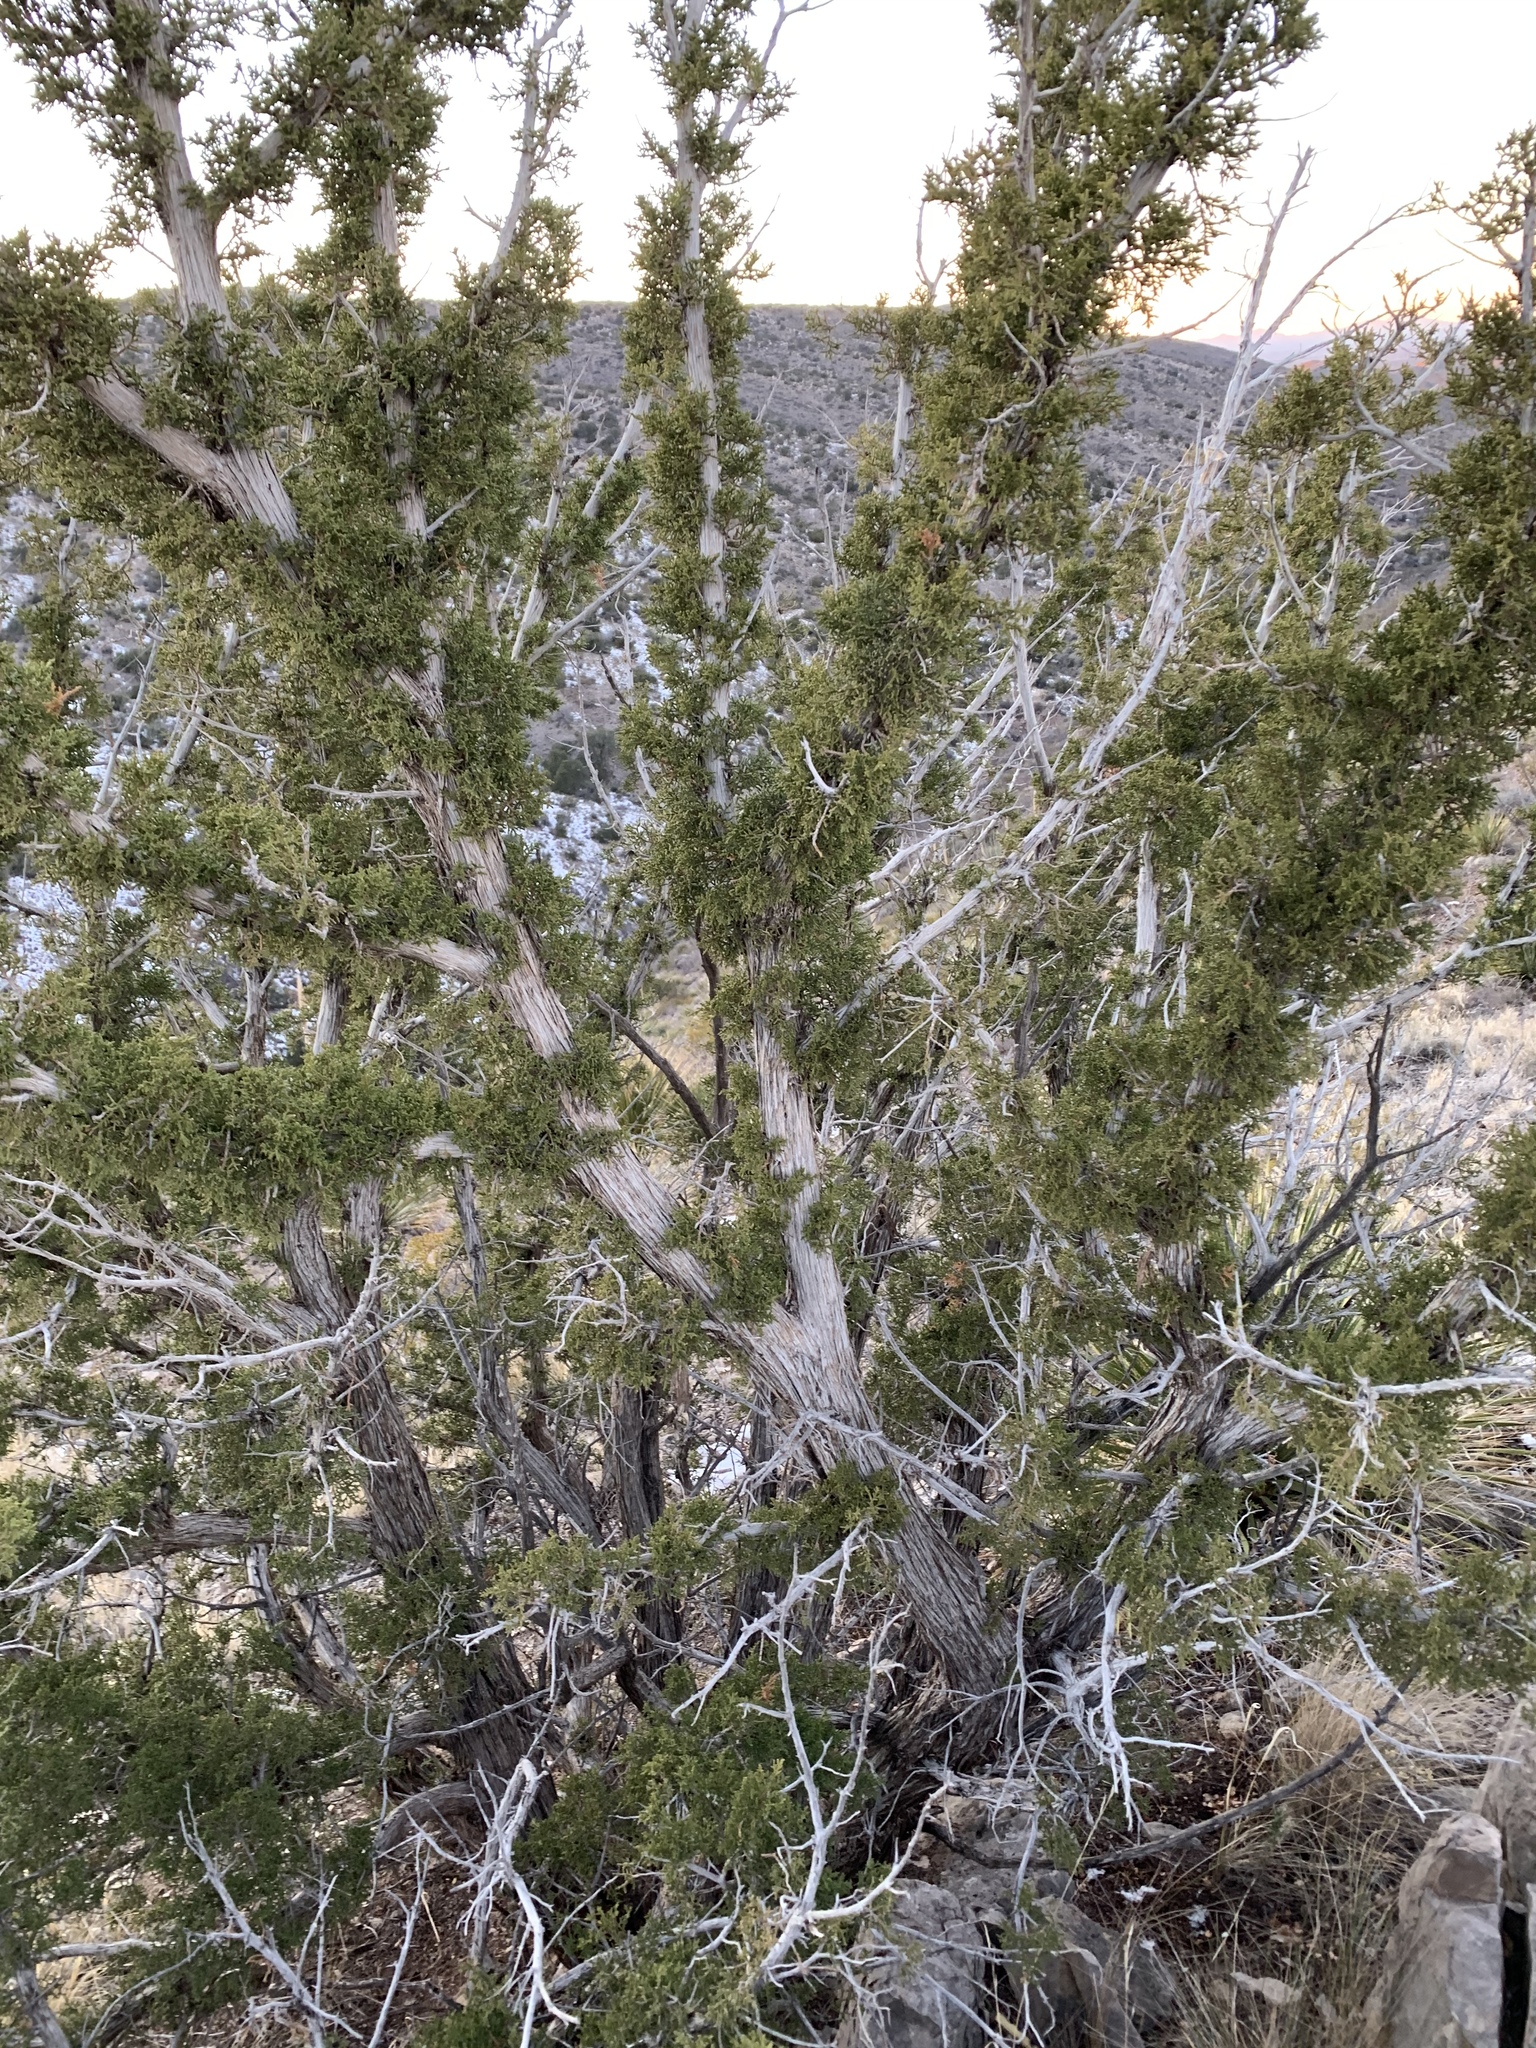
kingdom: Plantae
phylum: Tracheophyta
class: Pinopsida
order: Pinales
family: Cupressaceae
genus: Juniperus
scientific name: Juniperus monosperma
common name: One-seed juniper
